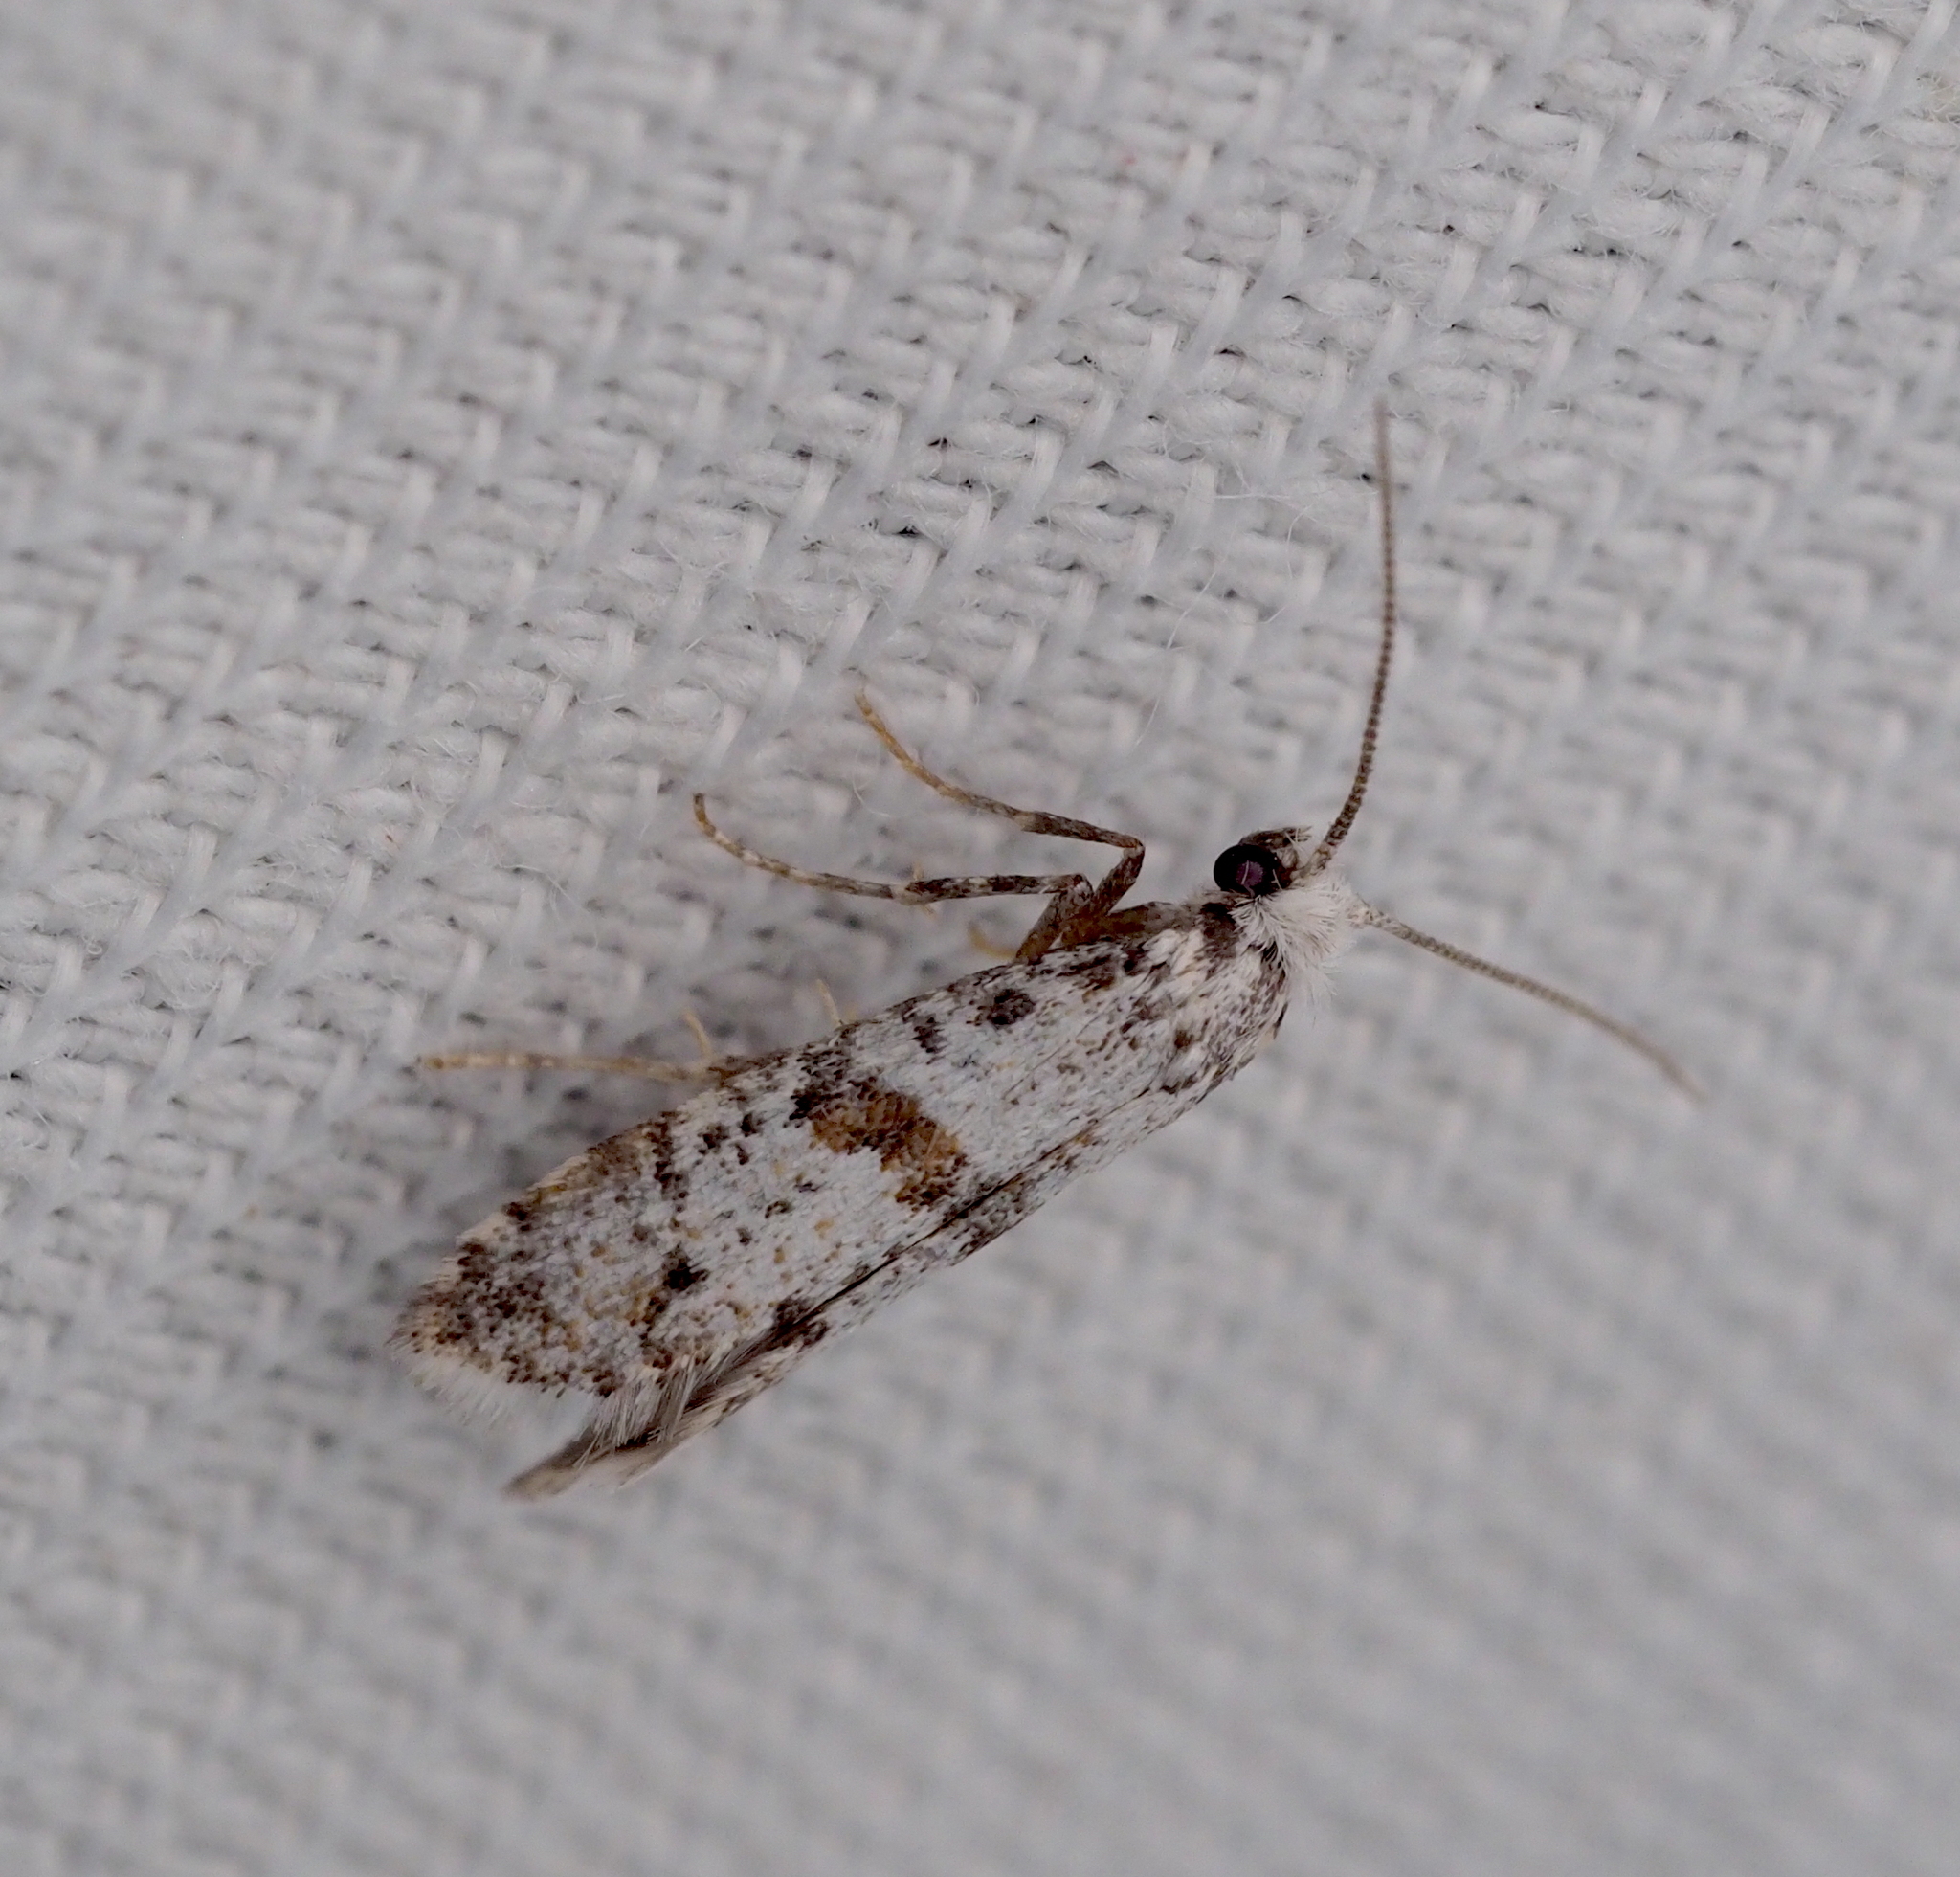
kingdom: Animalia
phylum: Arthropoda
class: Insecta
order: Lepidoptera
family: Yponomeutidae
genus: Scythropia
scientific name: Scythropia crataegella
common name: Hawthorn moth
